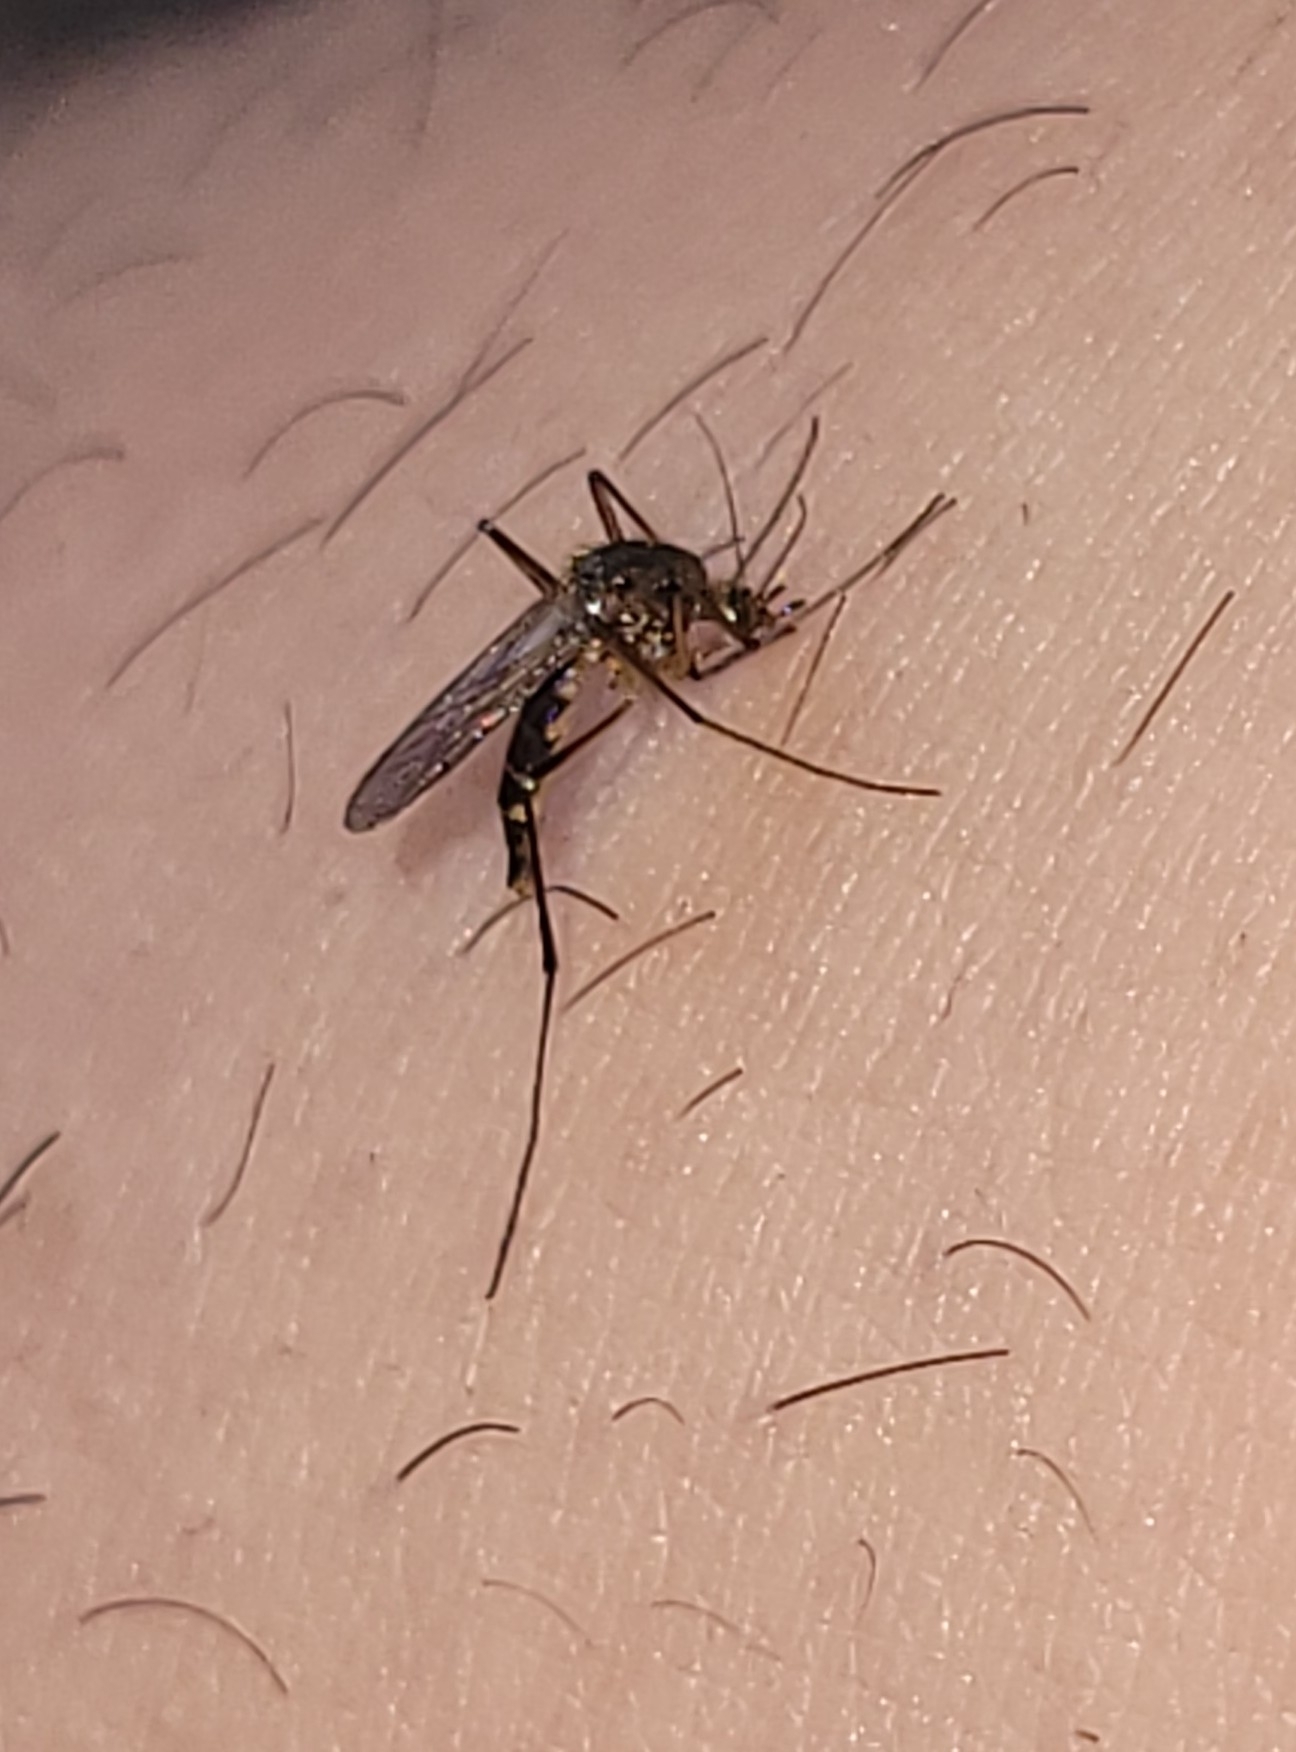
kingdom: Animalia
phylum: Arthropoda
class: Insecta
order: Diptera
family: Culicidae
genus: Psorophora
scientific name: Psorophora ferox
